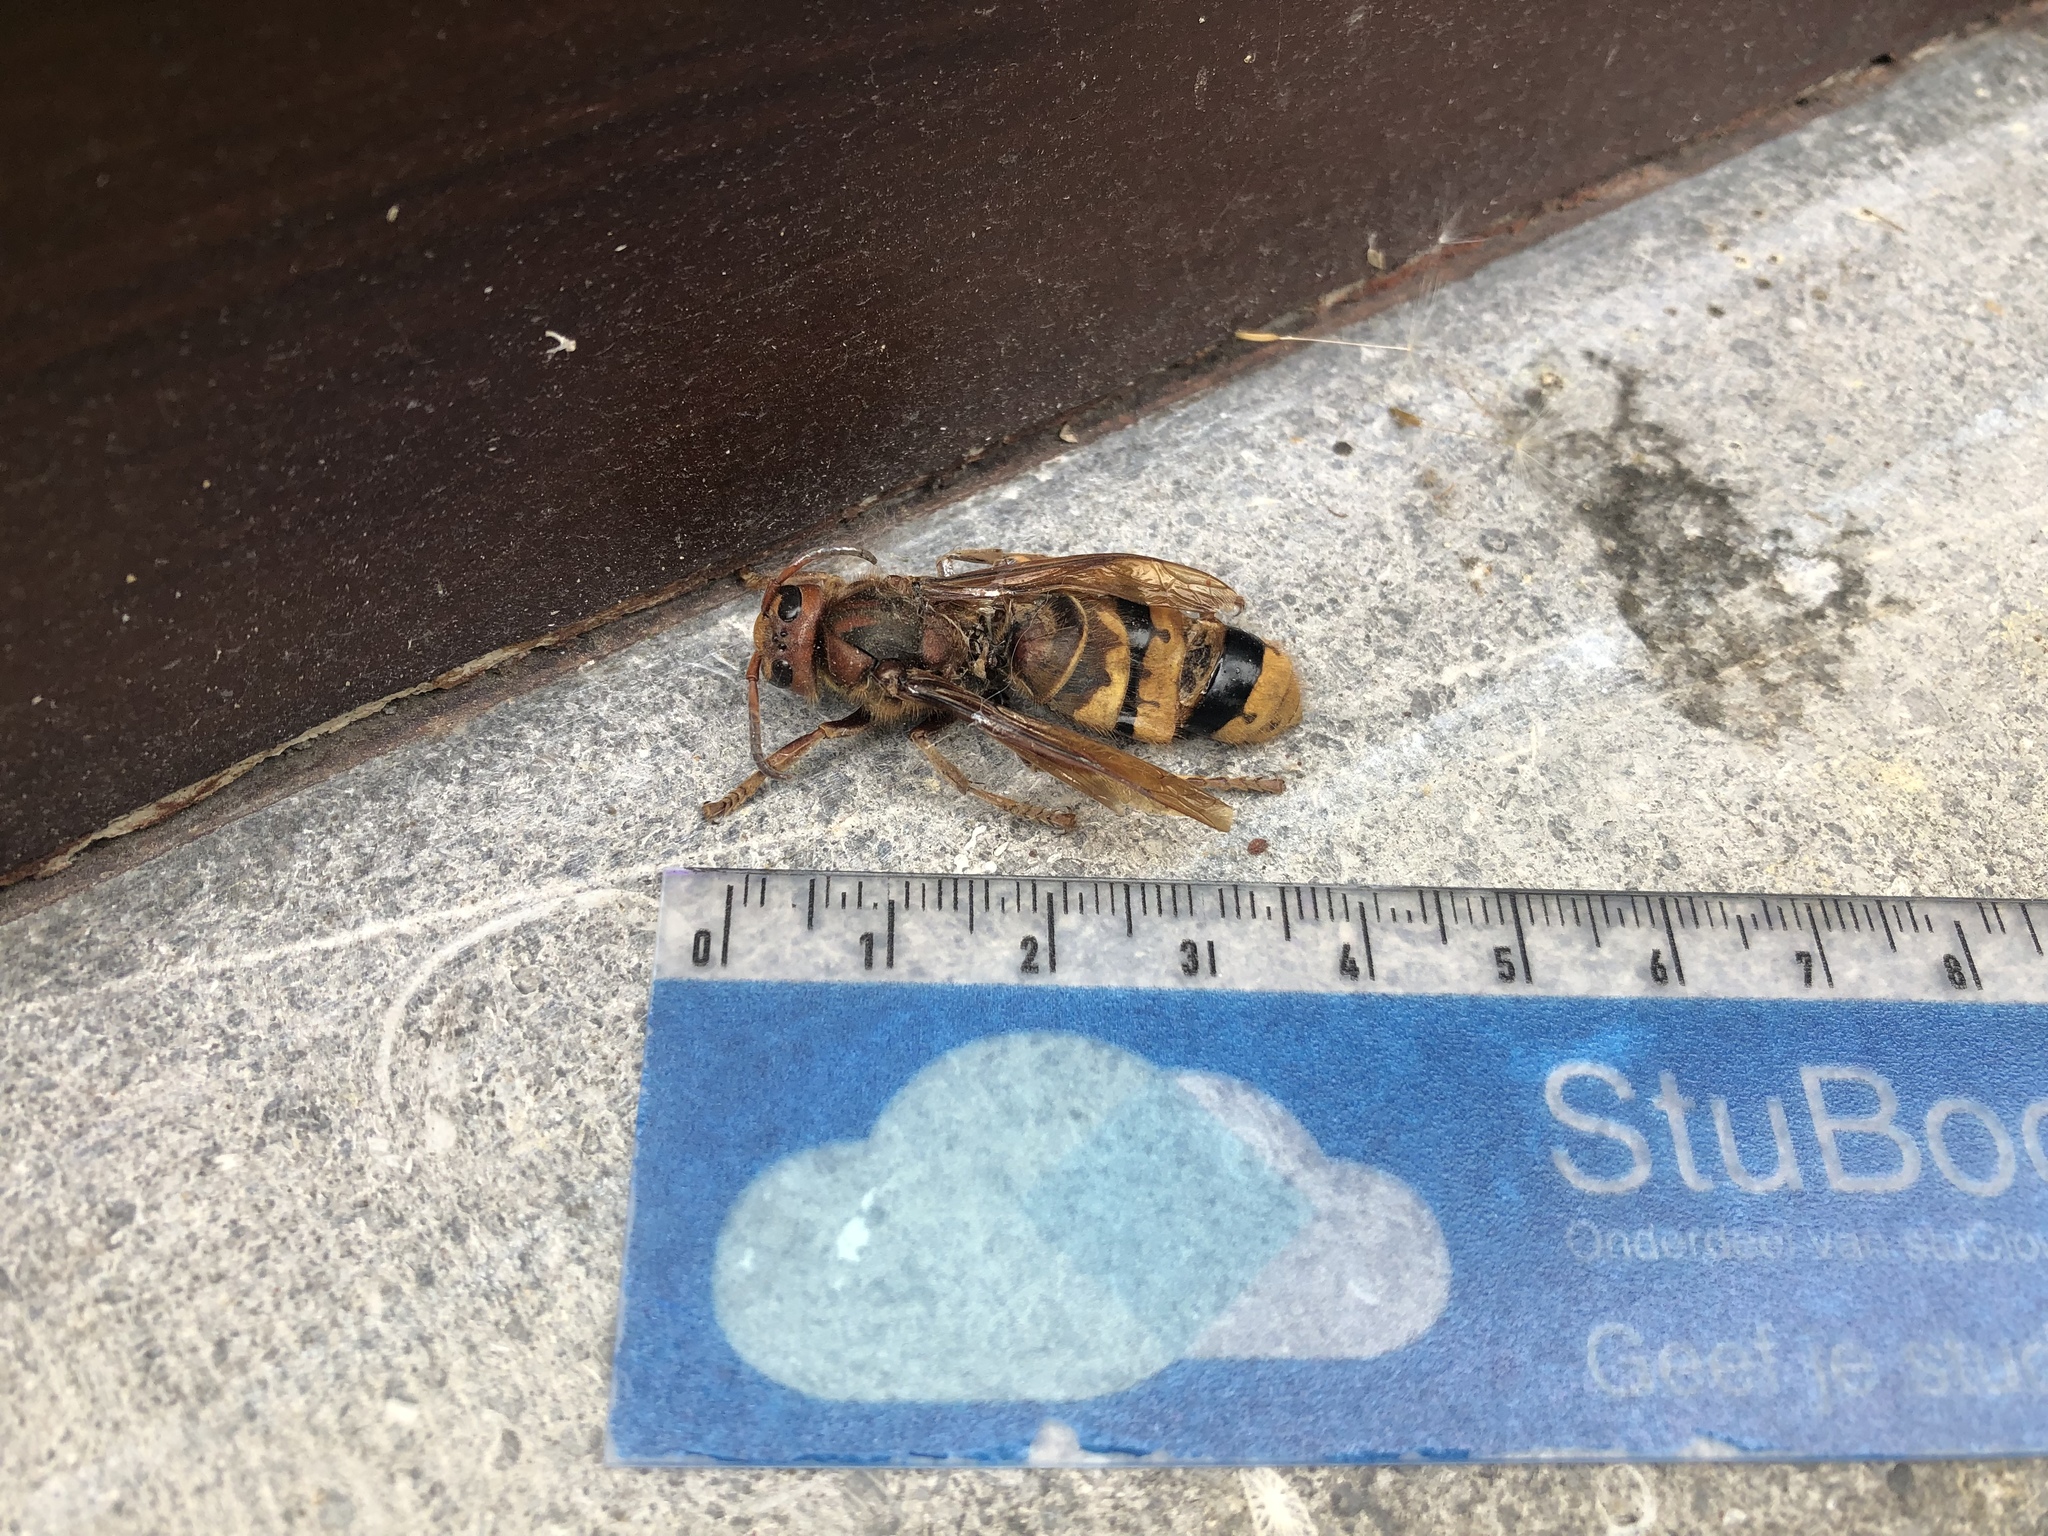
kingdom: Animalia
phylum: Arthropoda
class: Insecta
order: Hymenoptera
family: Vespidae
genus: Vespa
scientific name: Vespa crabro
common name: Hornet
